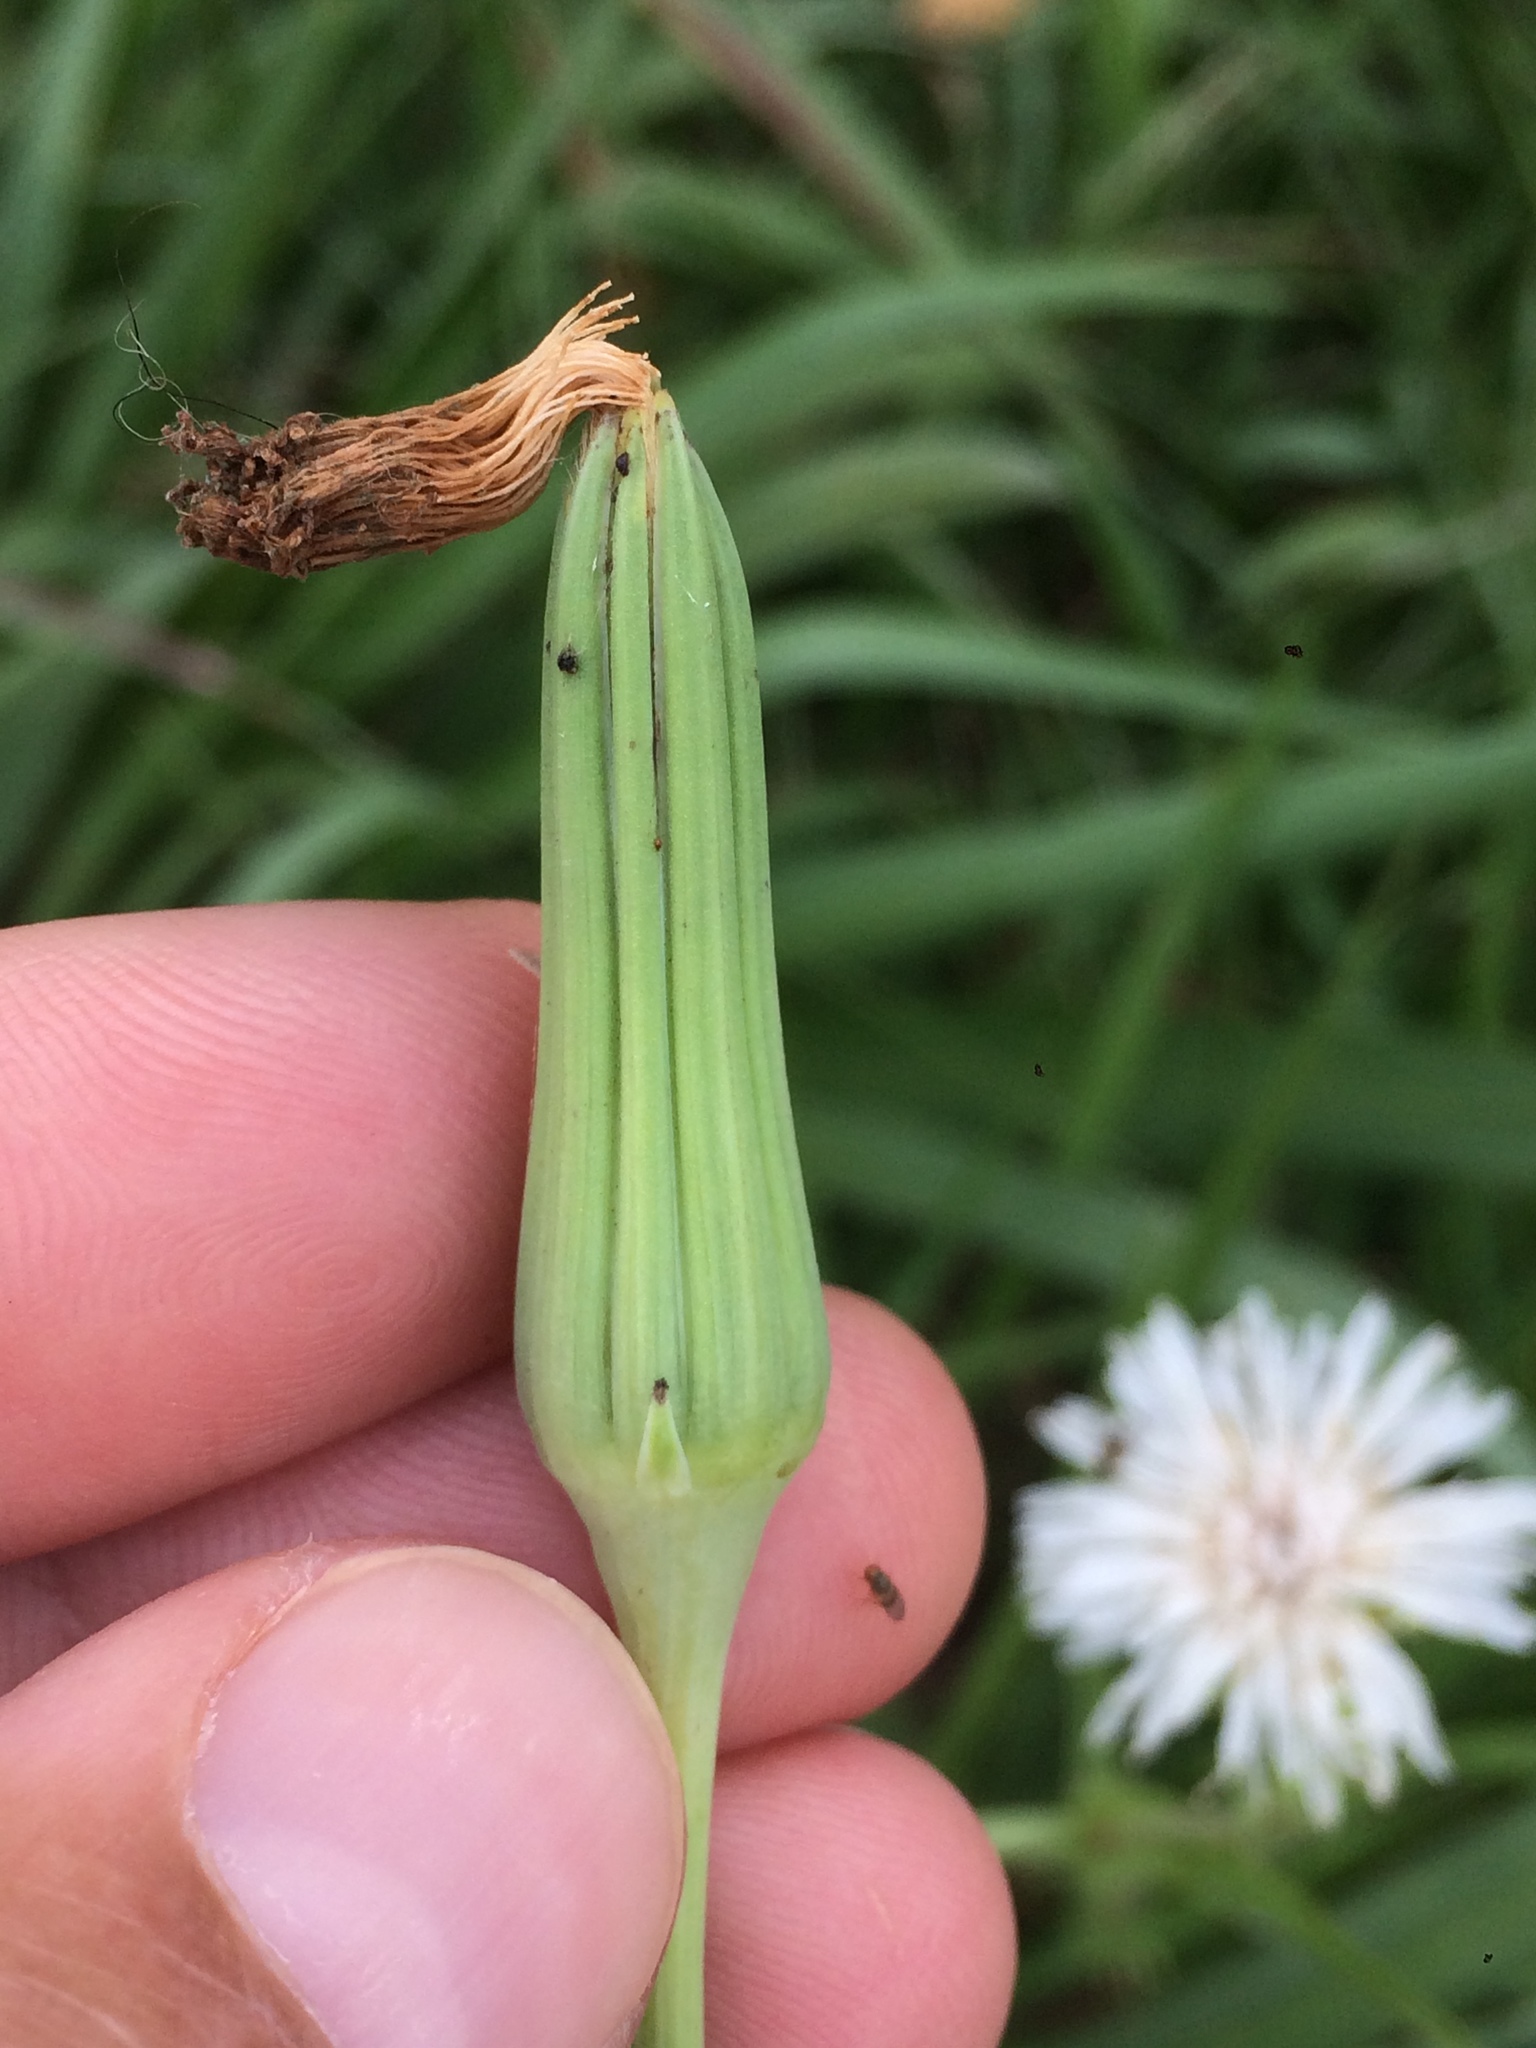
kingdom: Plantae
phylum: Tracheophyta
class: Magnoliopsida
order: Asterales
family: Asteraceae
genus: Picrosia
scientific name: Picrosia longifolia
